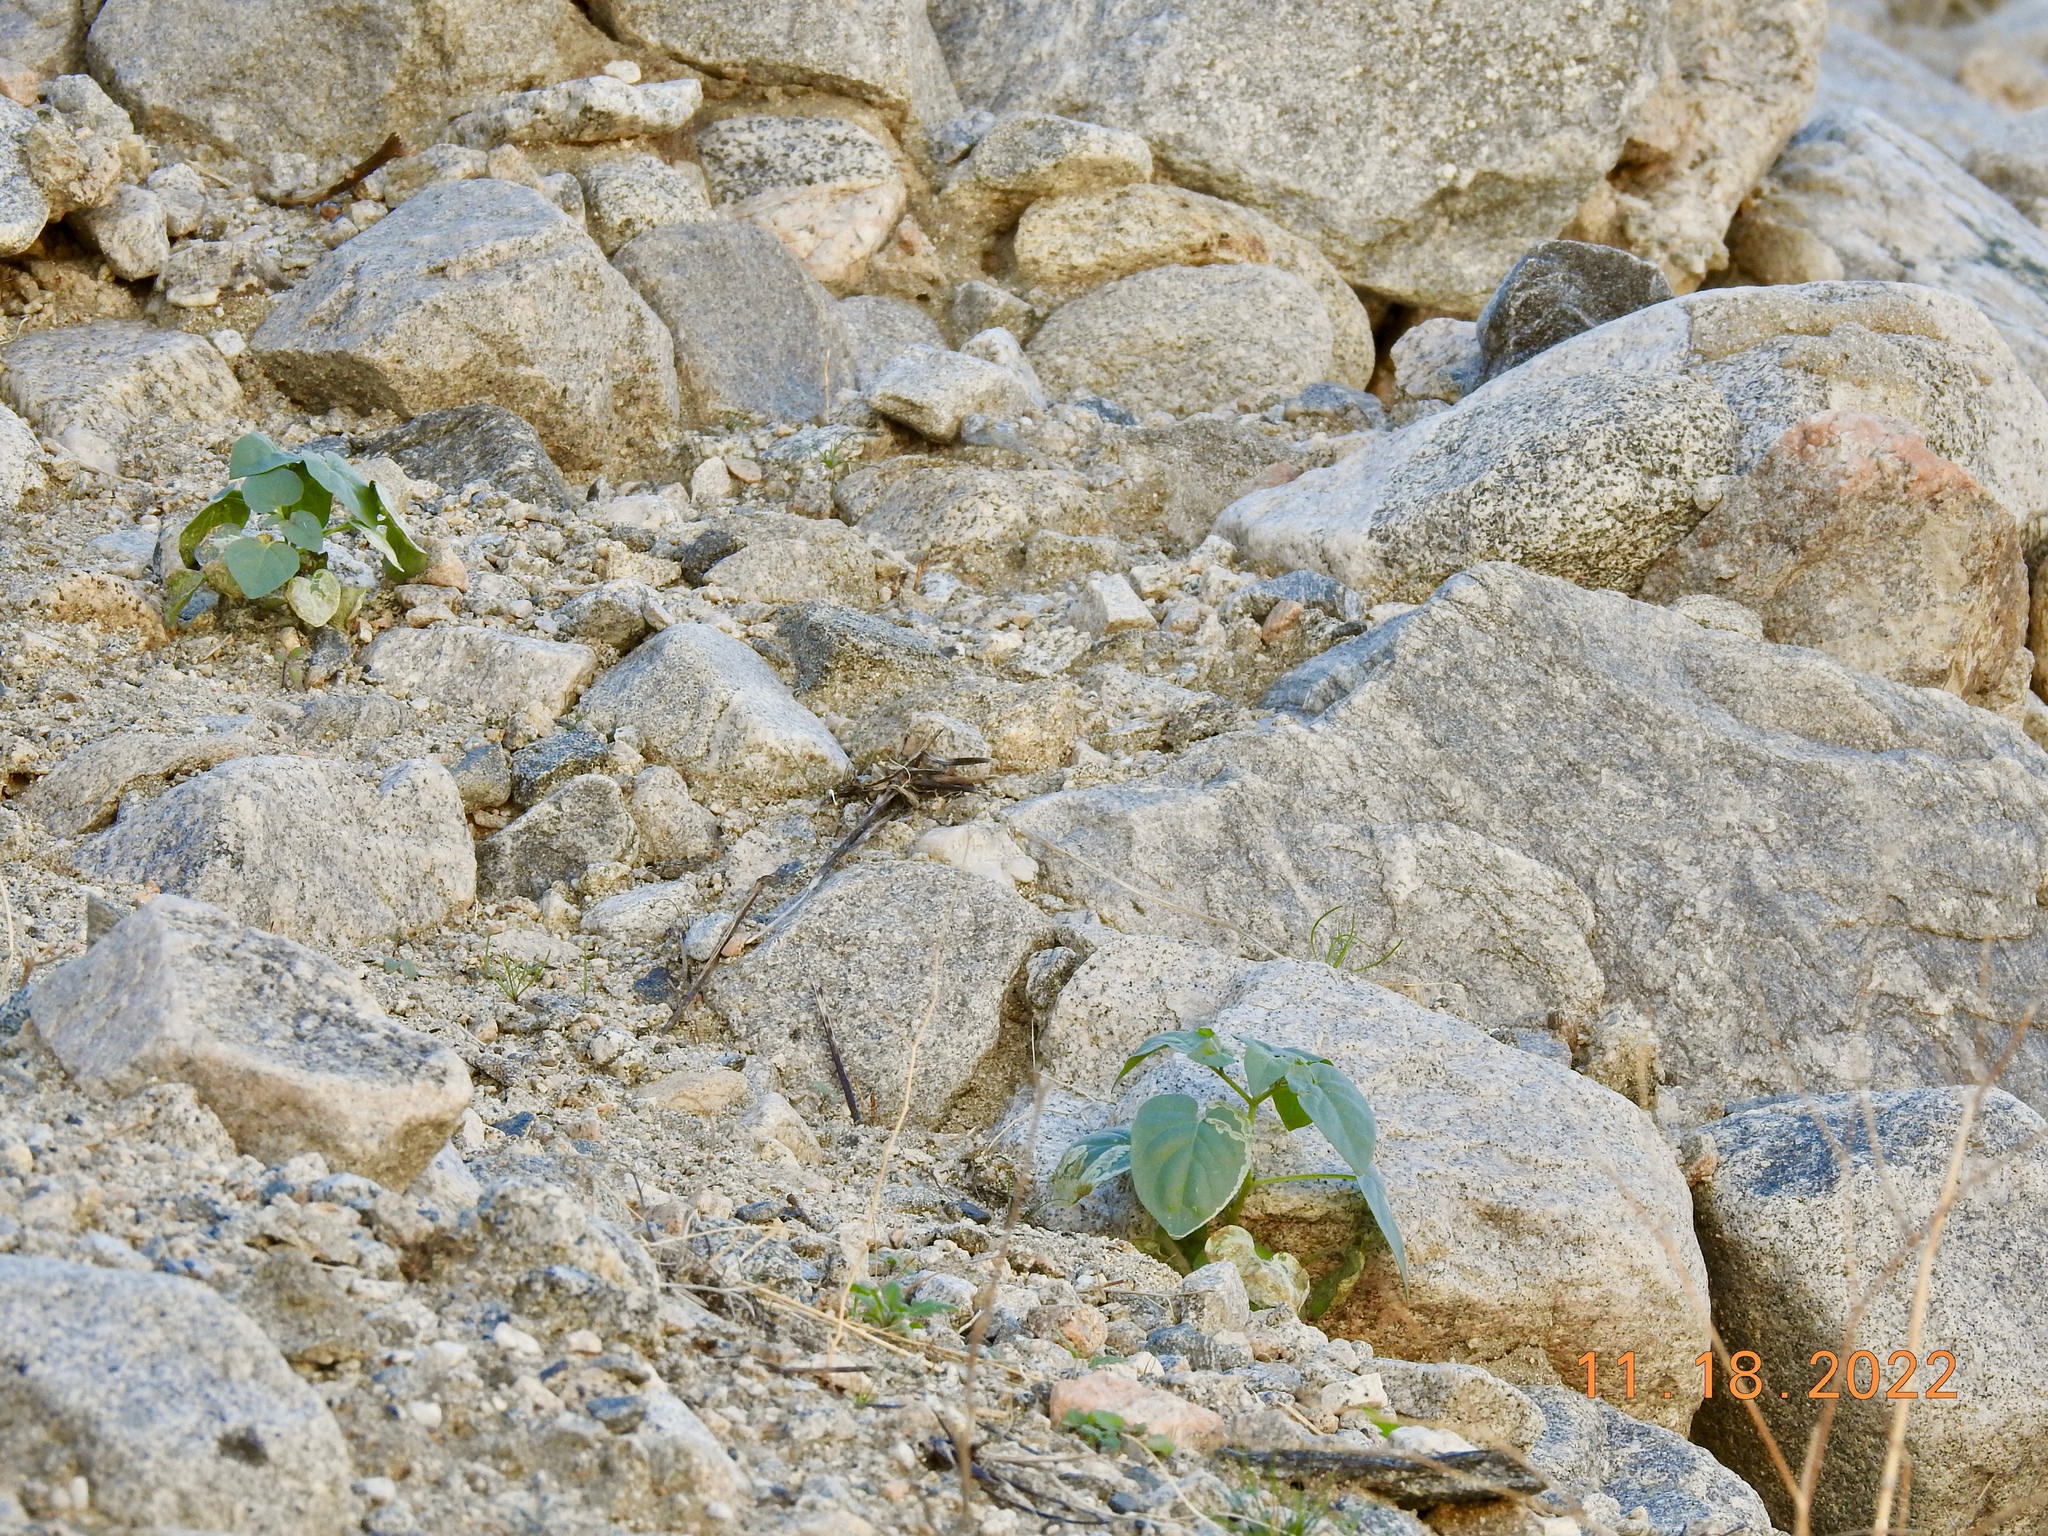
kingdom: Plantae
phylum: Tracheophyta
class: Magnoliopsida
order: Solanales
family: Solanaceae
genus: Datura
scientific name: Datura discolor
